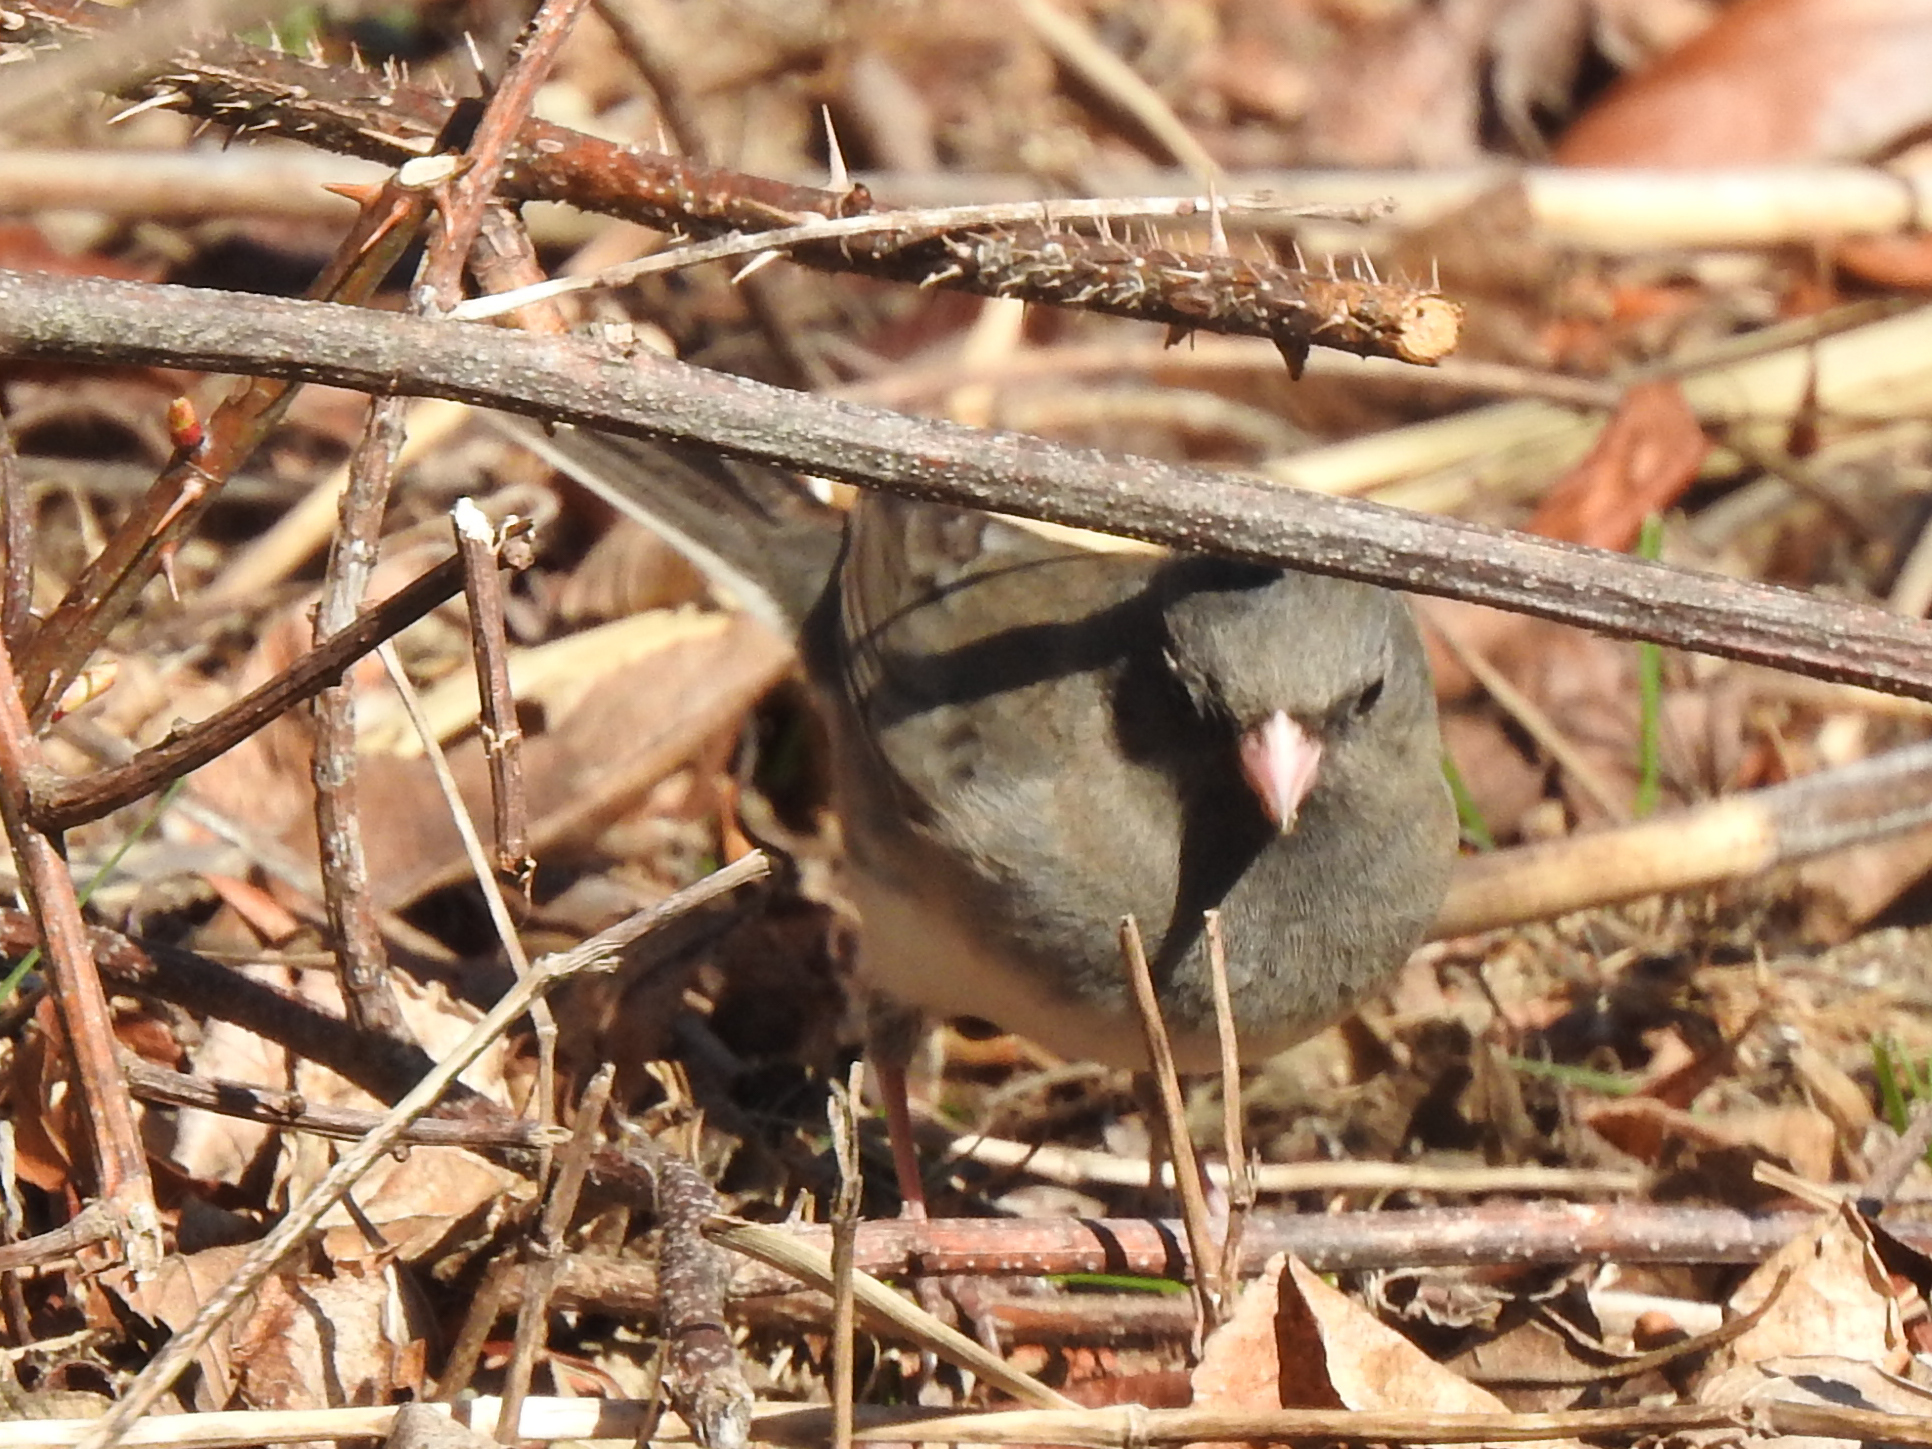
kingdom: Animalia
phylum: Chordata
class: Aves
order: Passeriformes
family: Passerellidae
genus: Junco
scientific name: Junco hyemalis
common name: Dark-eyed junco
